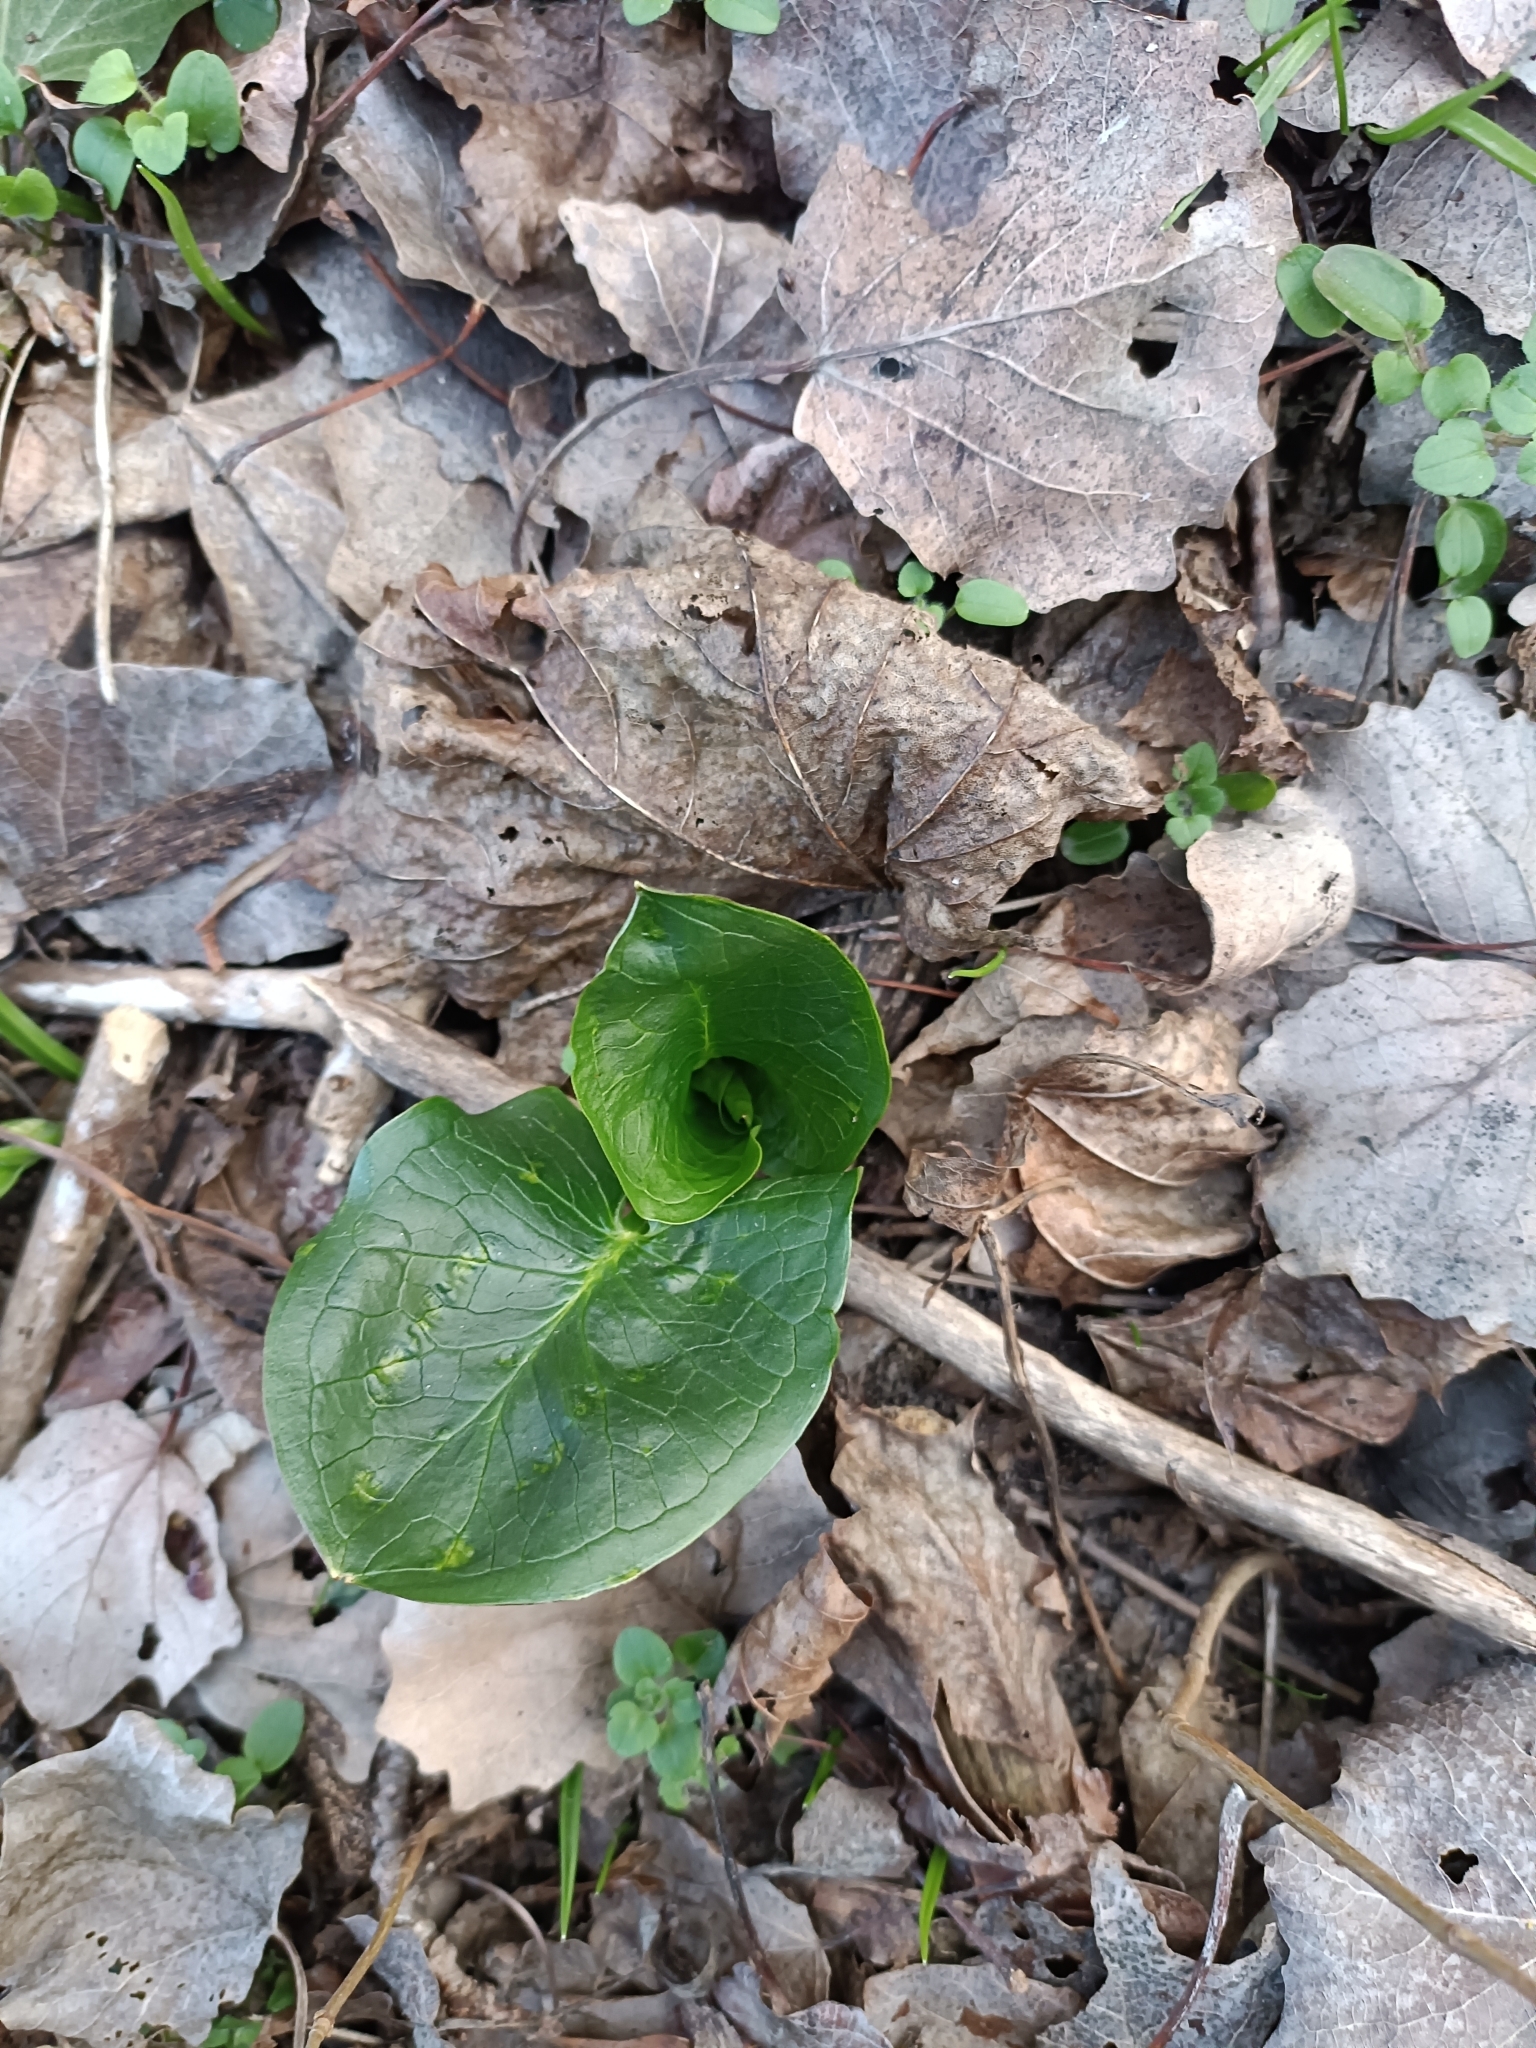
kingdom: Plantae
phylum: Tracheophyta
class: Liliopsida
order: Alismatales
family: Araceae
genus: Arum
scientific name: Arum cylindraceum
